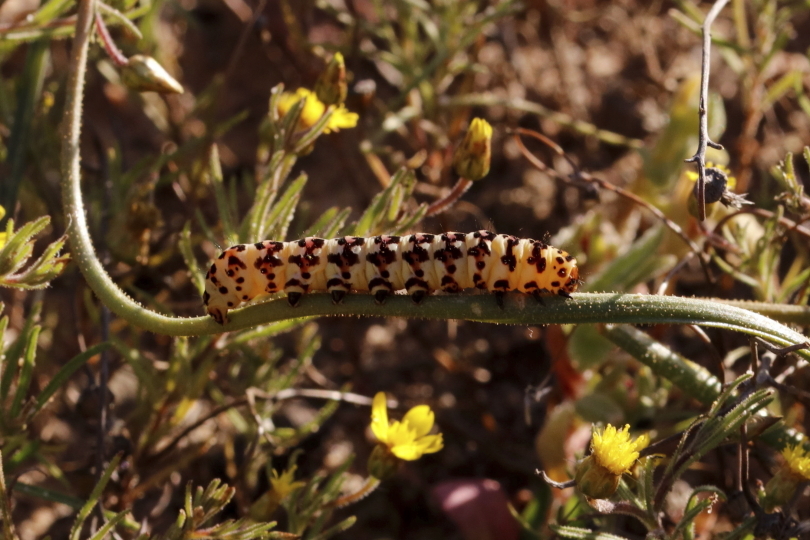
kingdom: Animalia
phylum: Arthropoda
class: Insecta
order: Lepidoptera
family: Noctuidae
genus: Diaphone
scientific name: Diaphone eumela
